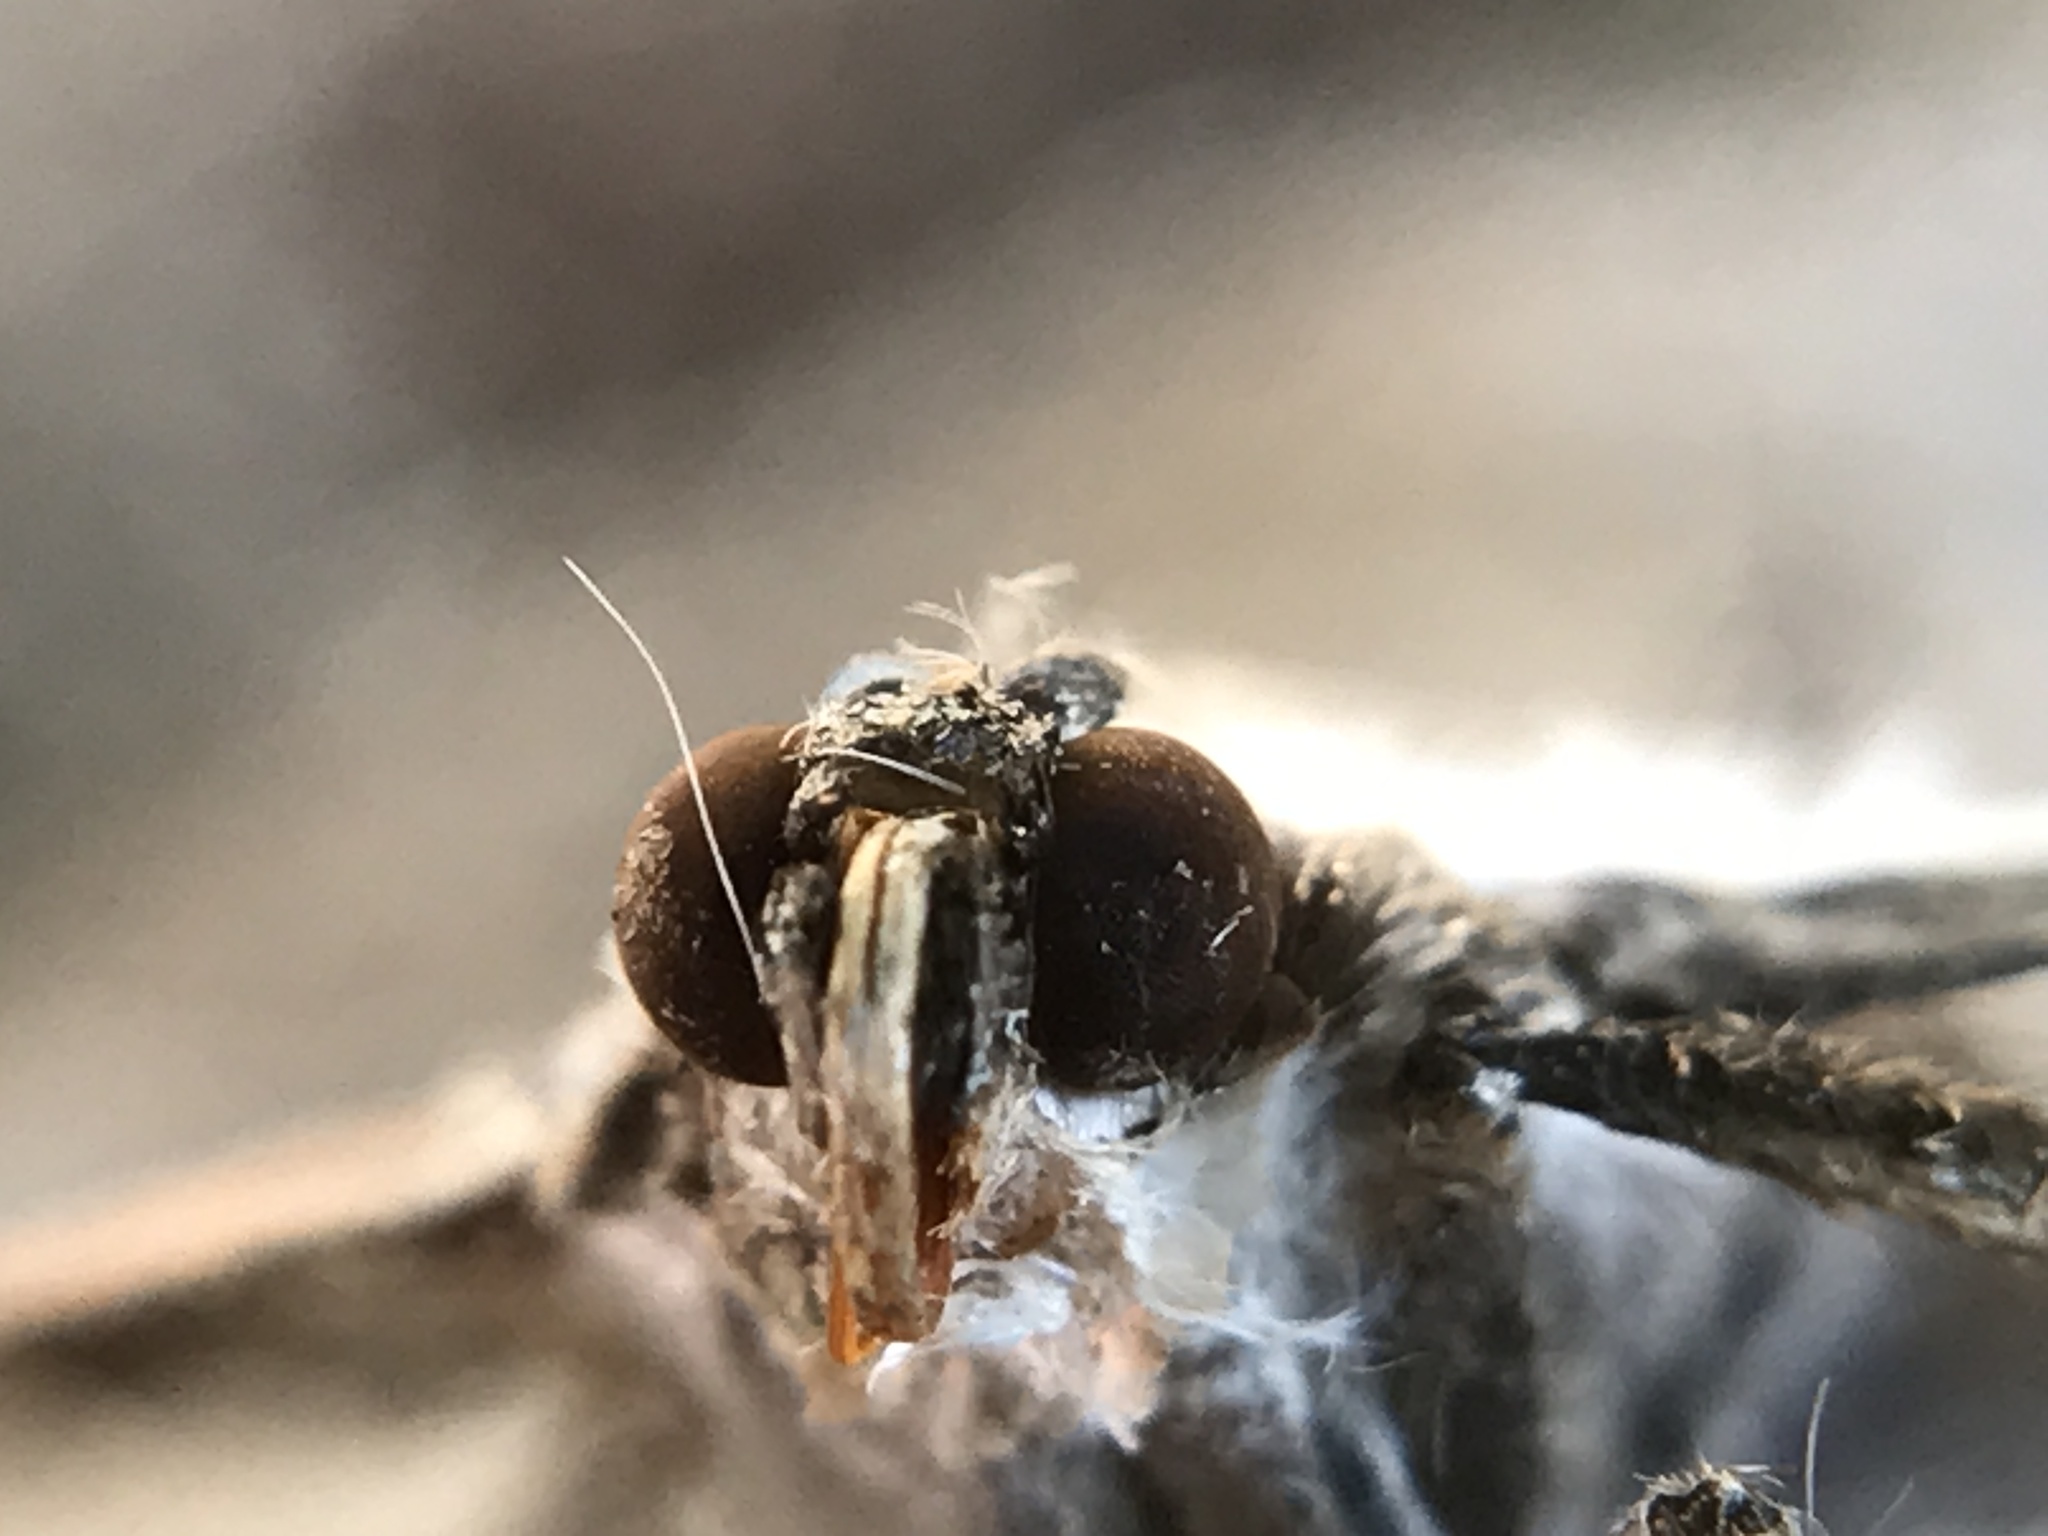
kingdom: Animalia
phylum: Arthropoda
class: Insecta
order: Lepidoptera
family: Crambidae
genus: Cydalima
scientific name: Cydalima perspectalis
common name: Box tree moth
